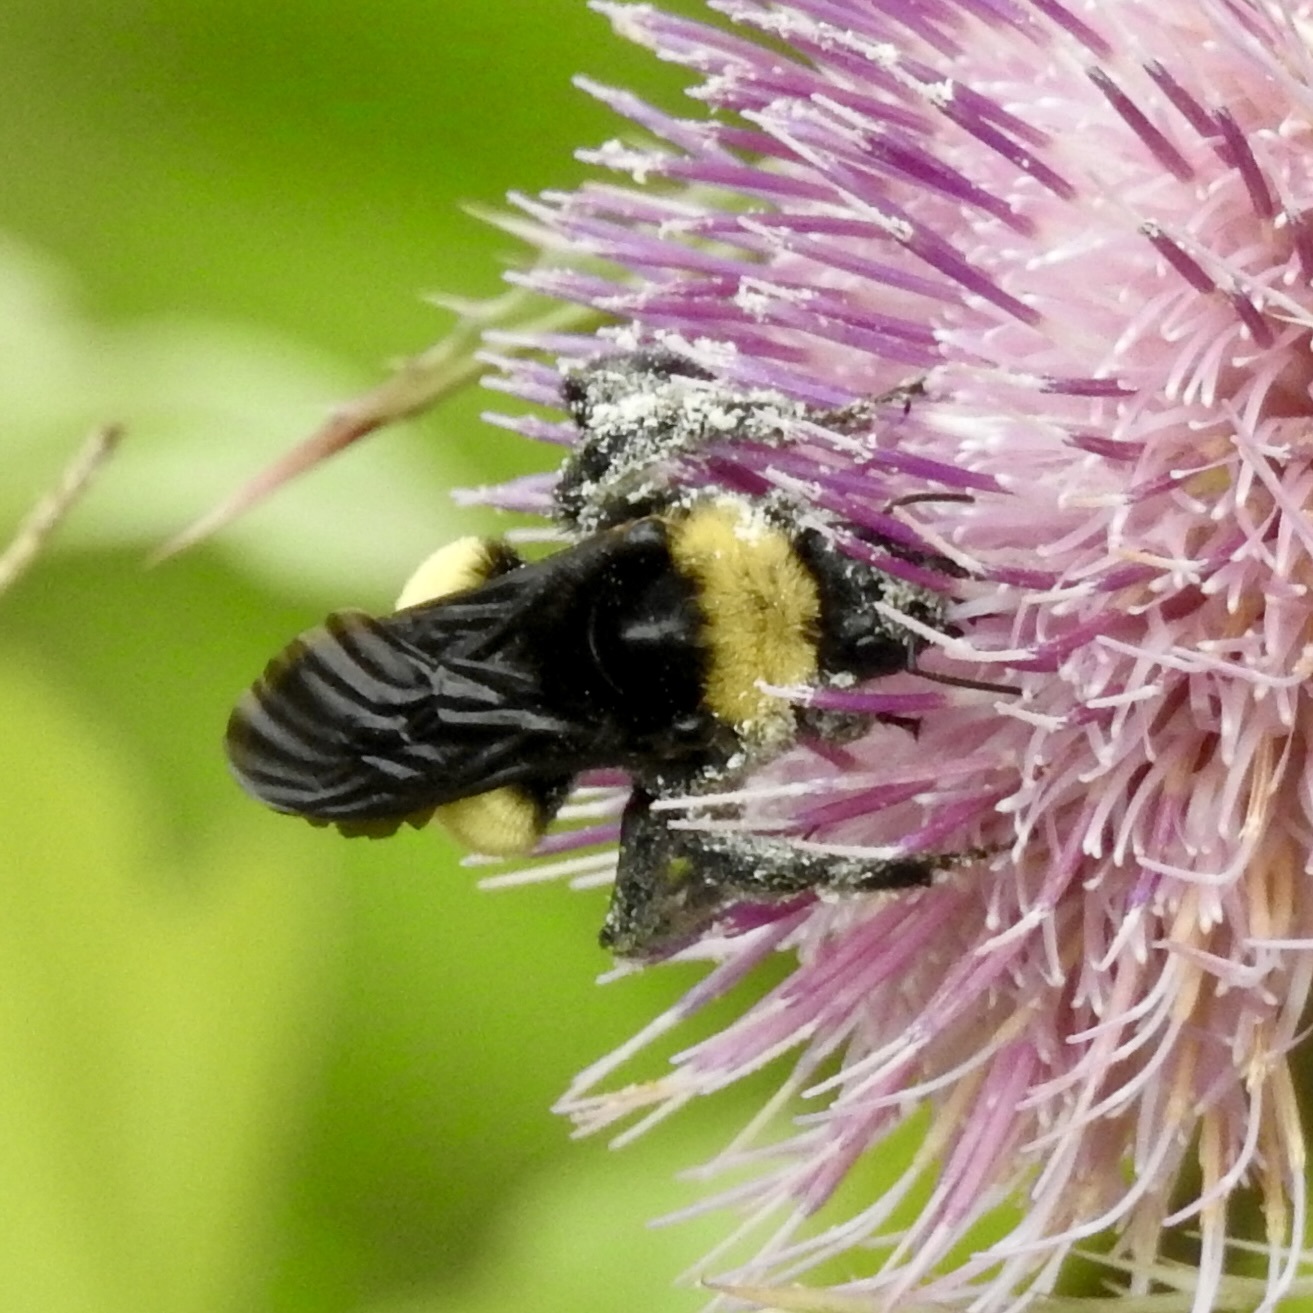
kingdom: Animalia
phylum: Arthropoda
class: Insecta
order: Hymenoptera
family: Apidae
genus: Bombus
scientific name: Bombus pensylvanicus
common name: Bumble bee
